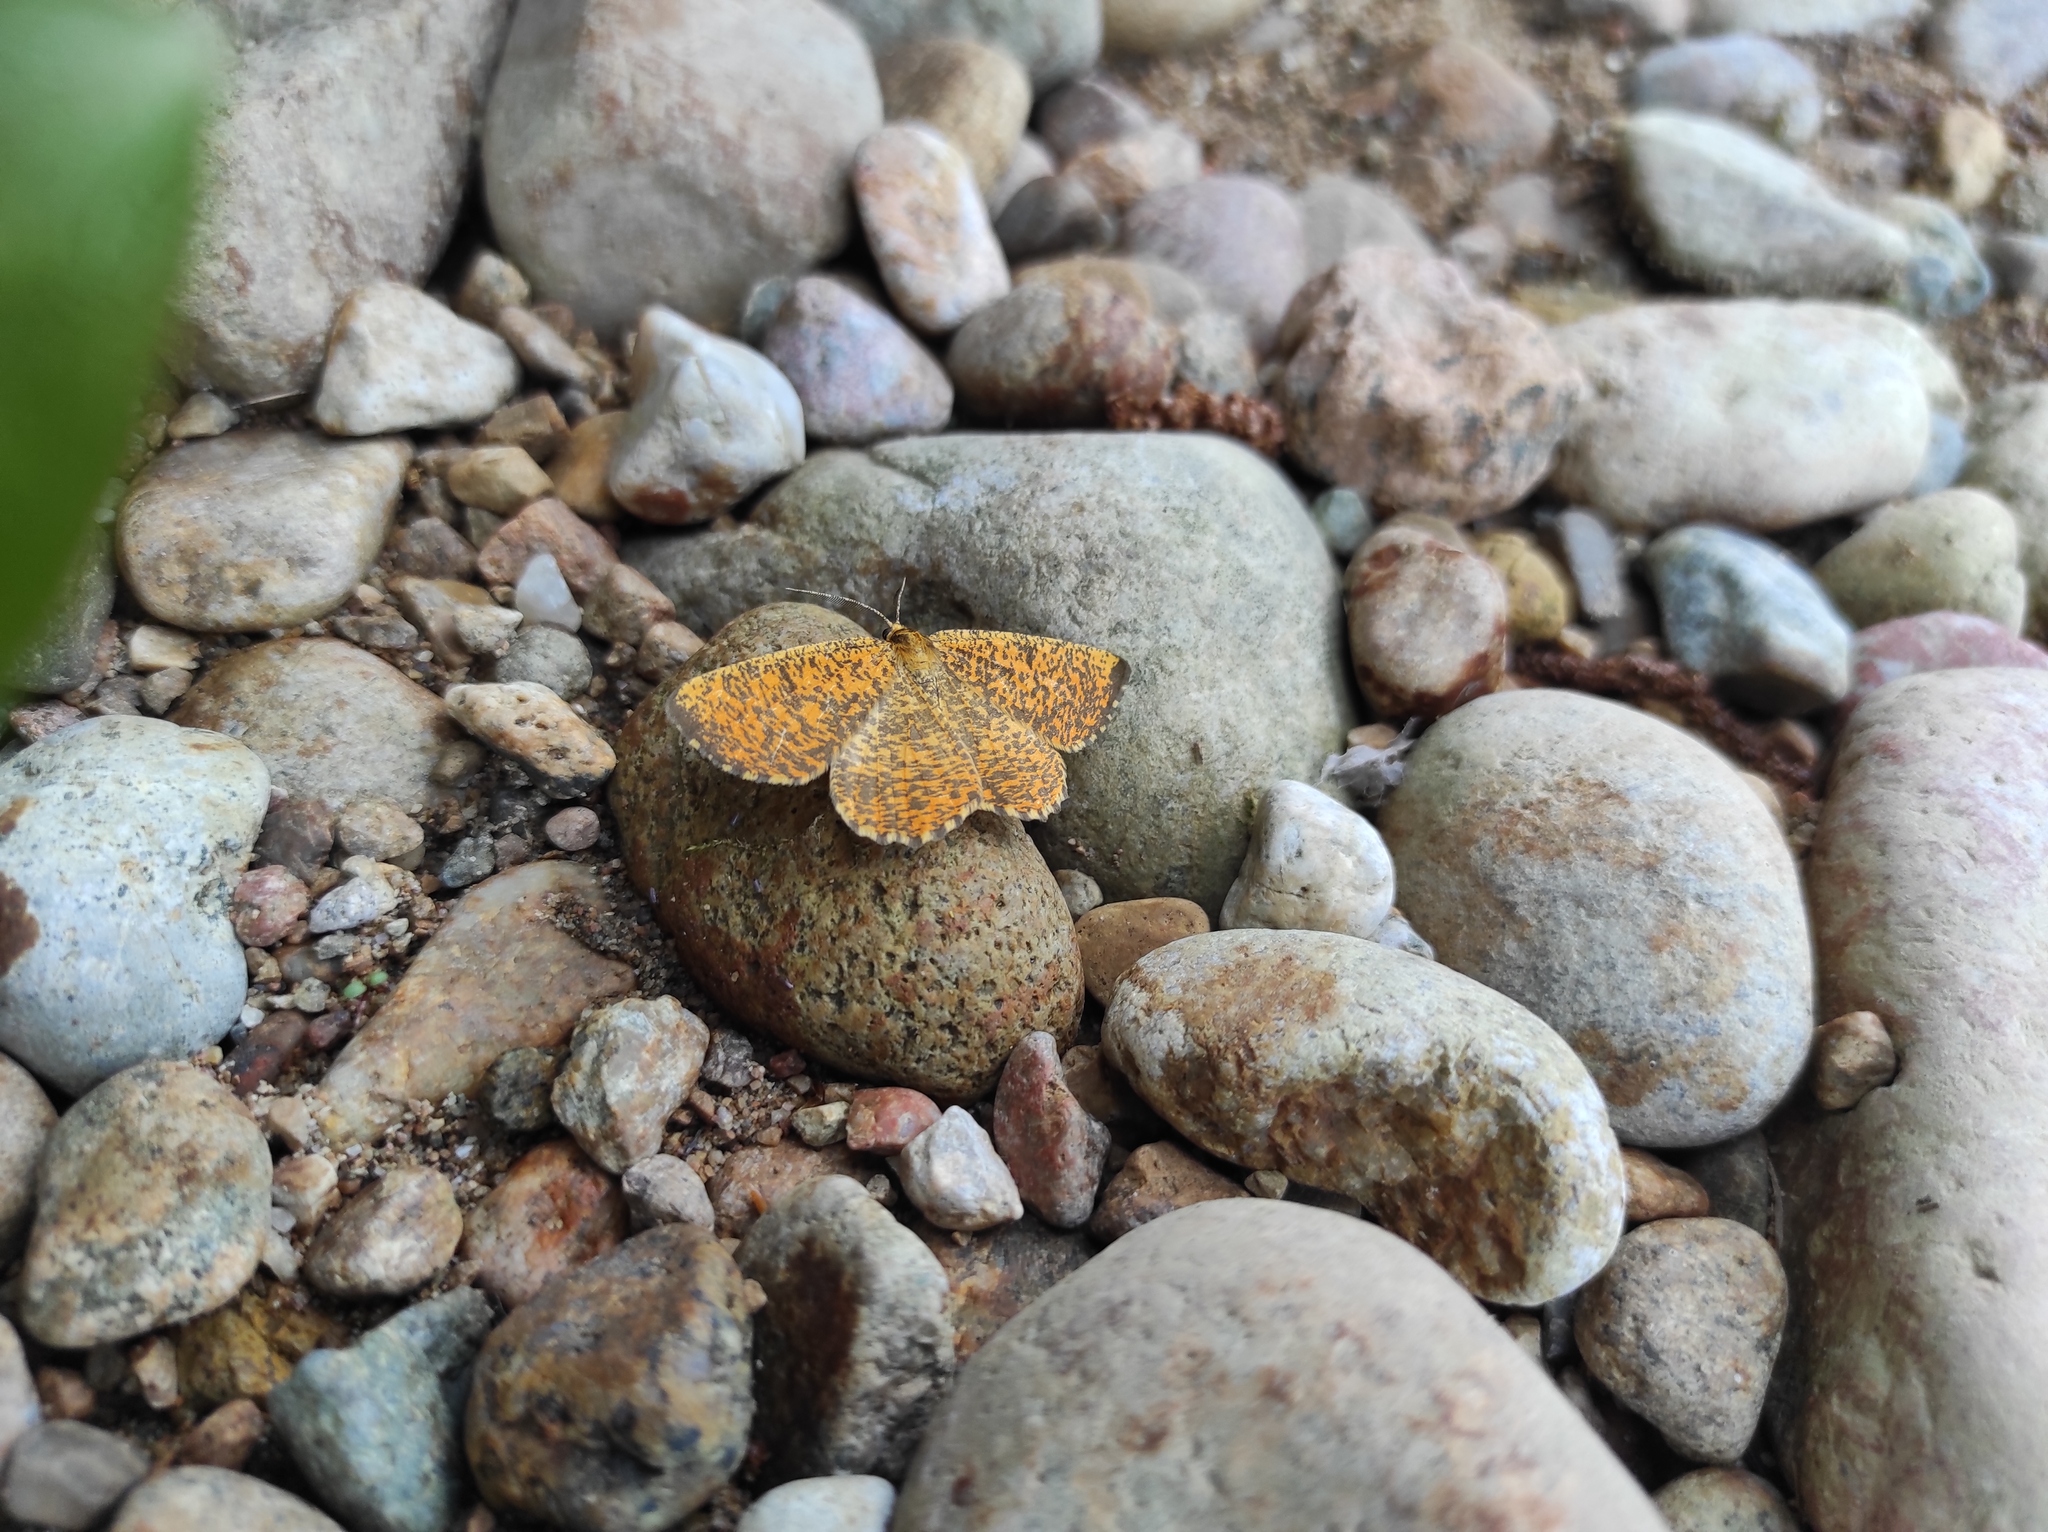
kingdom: Animalia
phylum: Arthropoda
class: Insecta
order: Lepidoptera
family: Geometridae
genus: Angerona
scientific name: Angerona prunaria
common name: Orange moth
